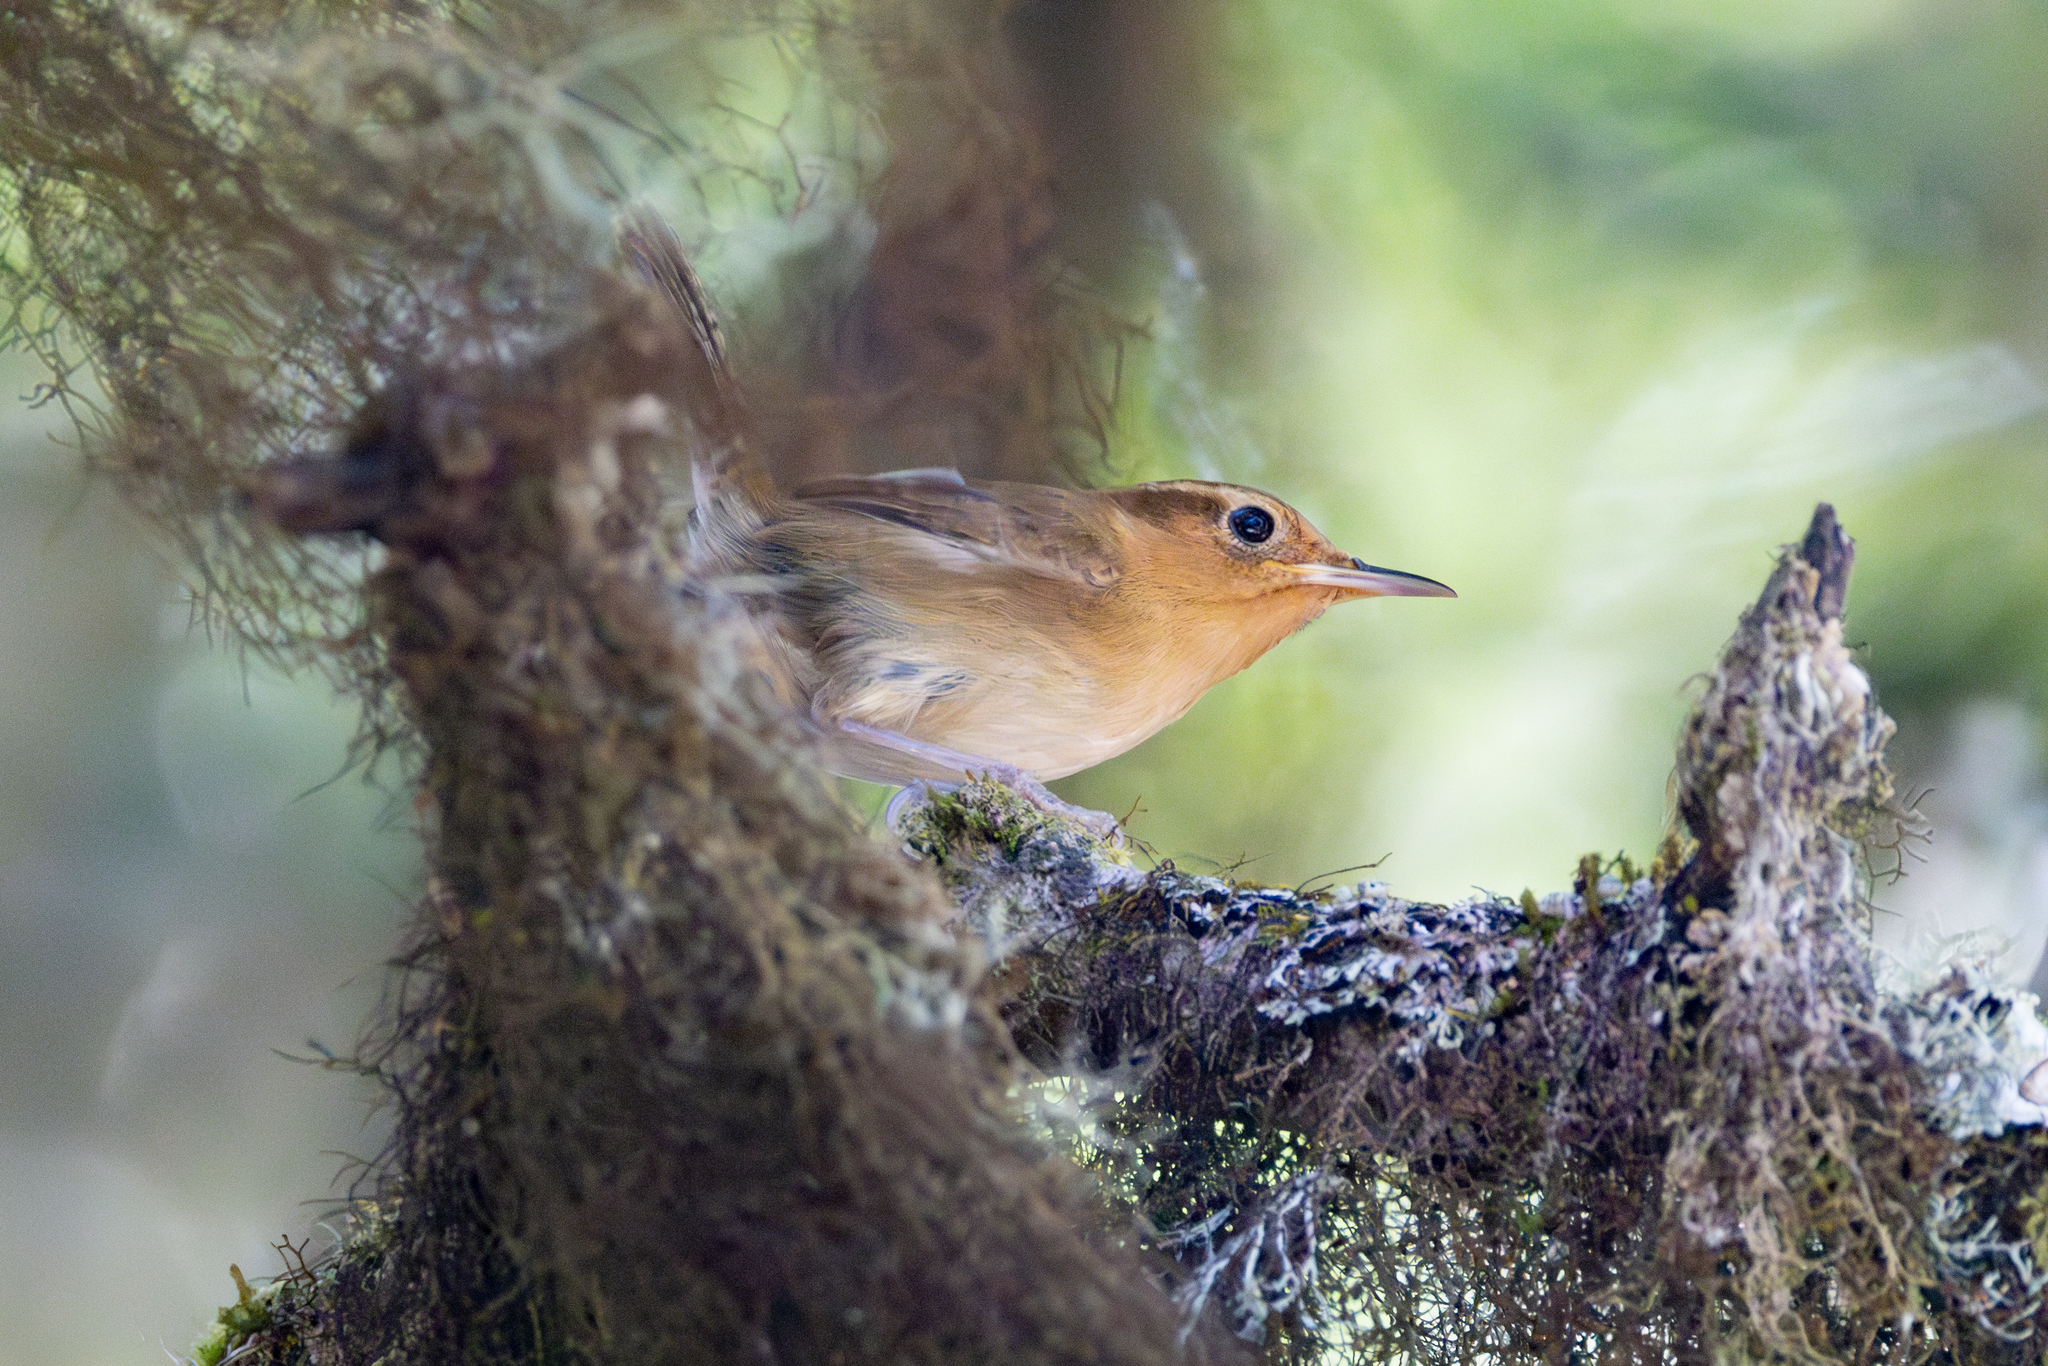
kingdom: Animalia
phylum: Chordata
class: Aves
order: Passeriformes
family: Troglodytidae
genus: Troglodytes
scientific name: Troglodytes ochraceus
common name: Ochraceous wren
